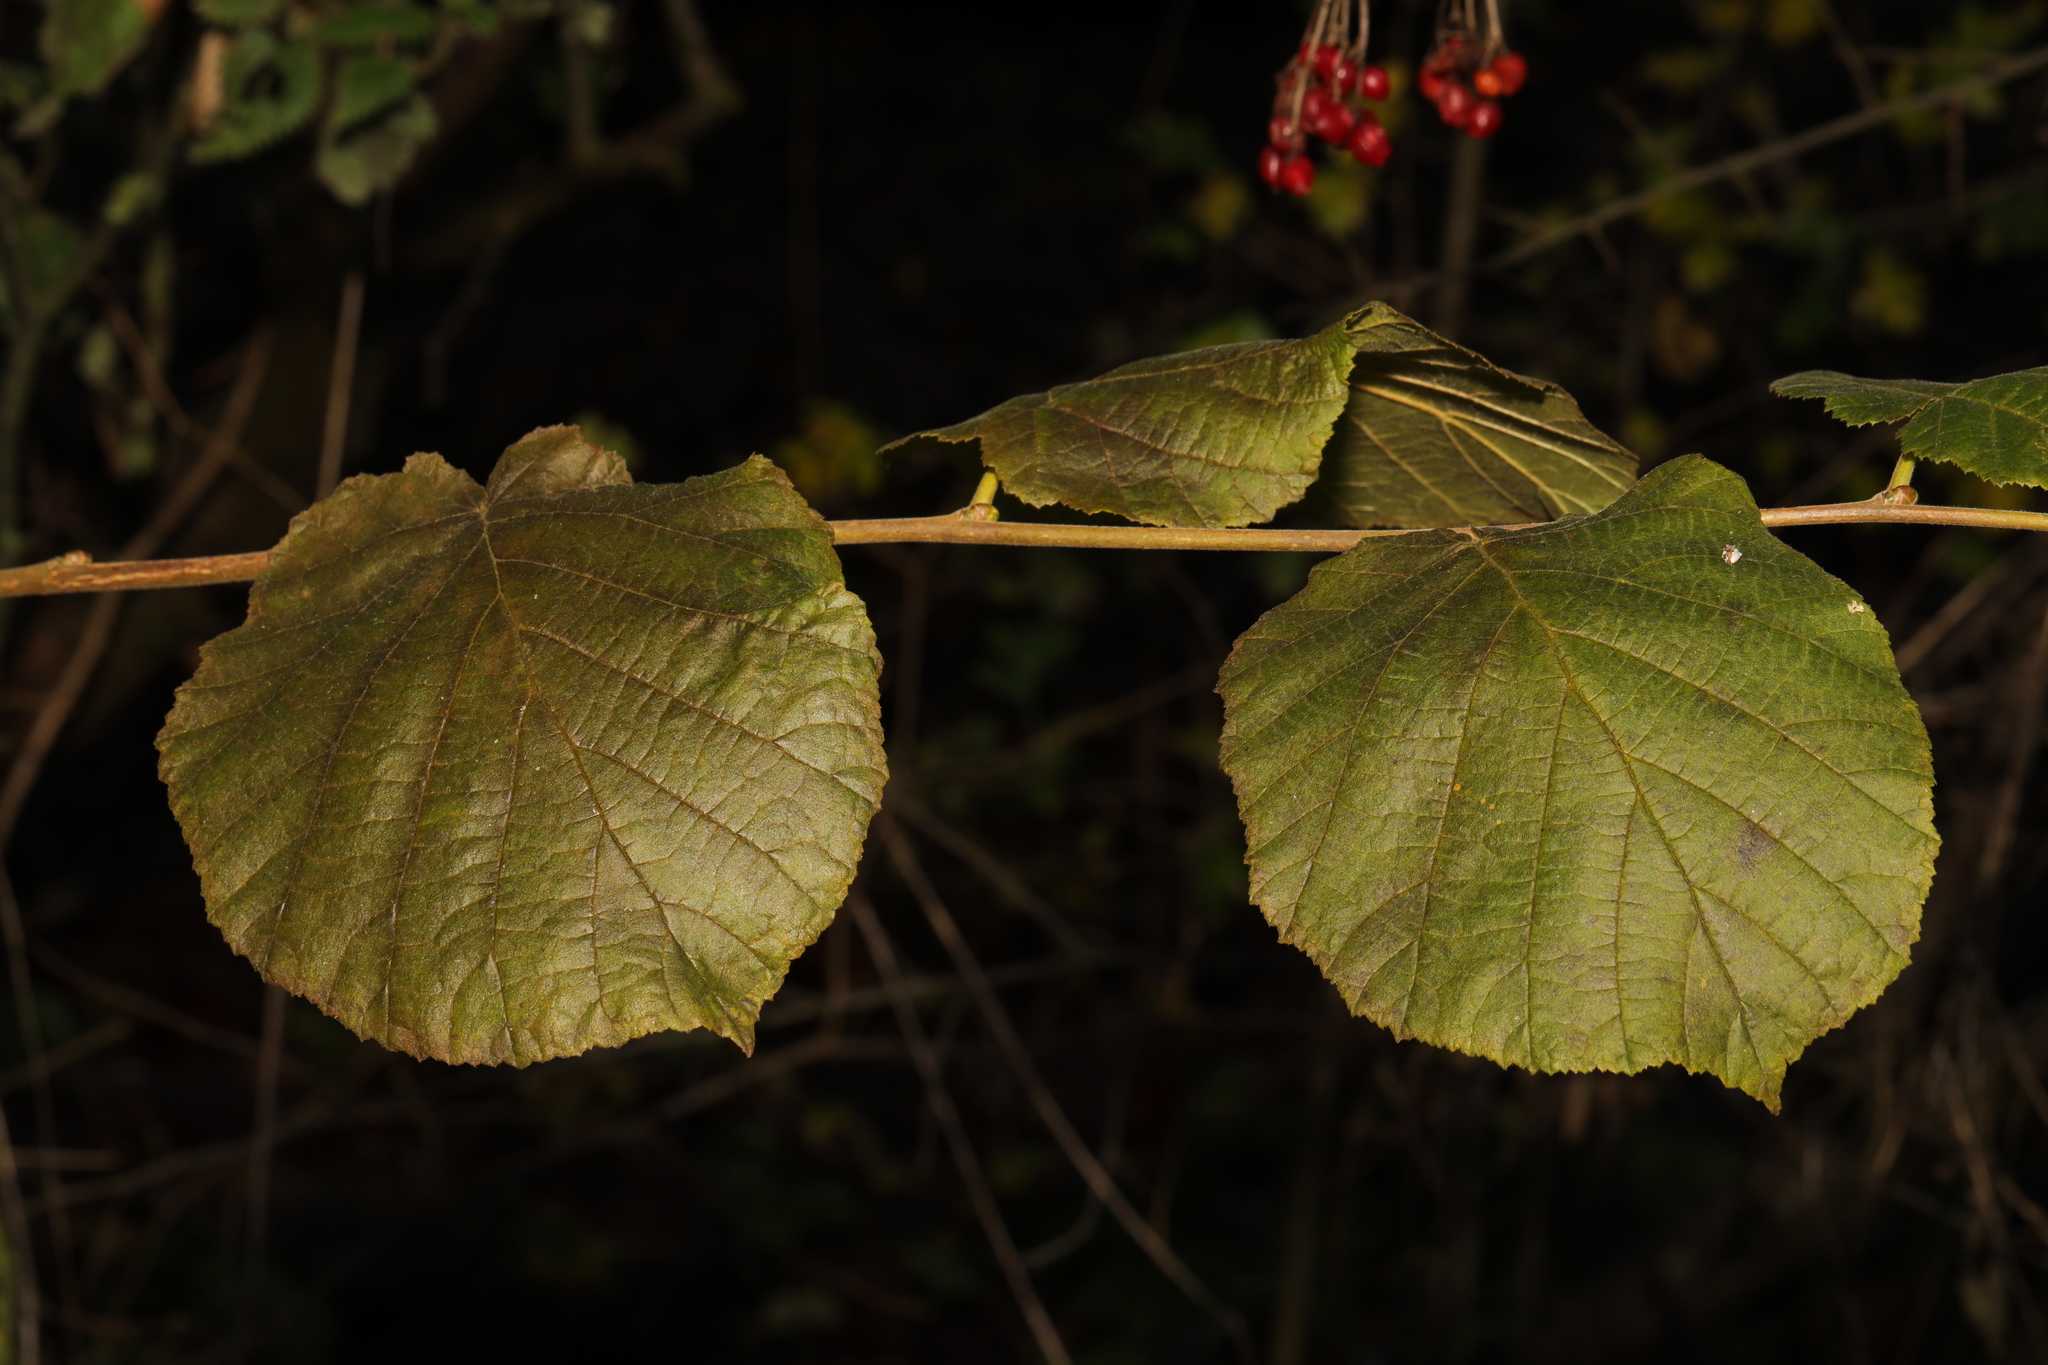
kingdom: Plantae
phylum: Tracheophyta
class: Magnoliopsida
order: Fagales
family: Betulaceae
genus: Corylus
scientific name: Corylus avellana
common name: European hazel
